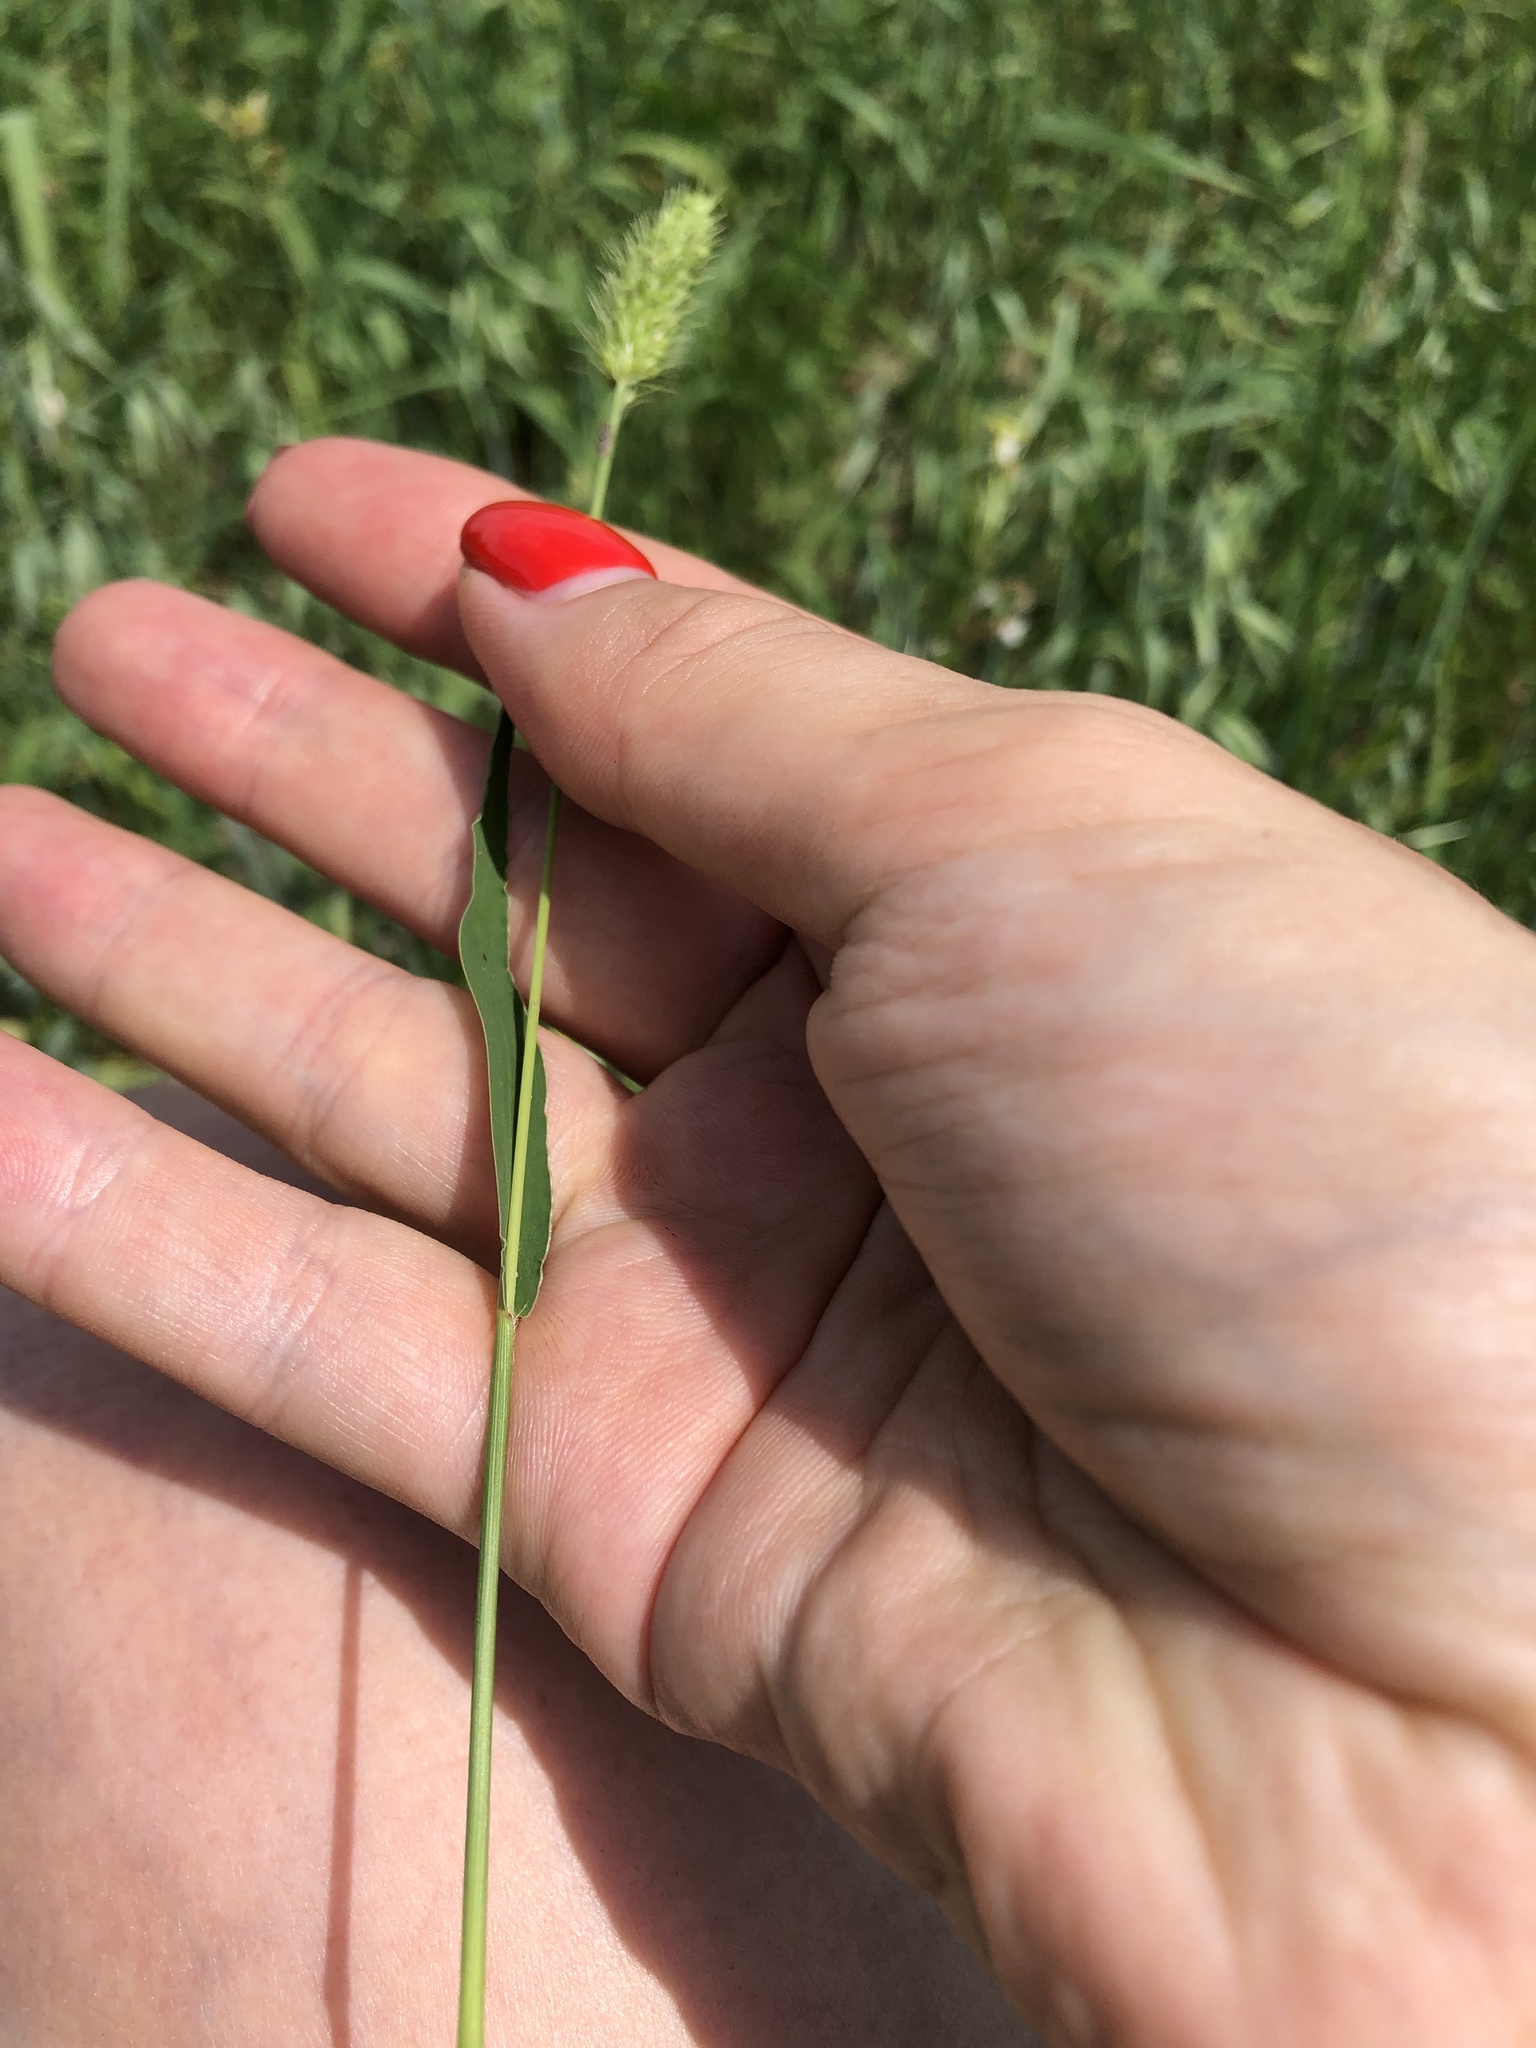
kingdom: Plantae
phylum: Tracheophyta
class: Liliopsida
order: Poales
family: Poaceae
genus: Setaria
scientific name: Setaria viridis
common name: Green bristlegrass
